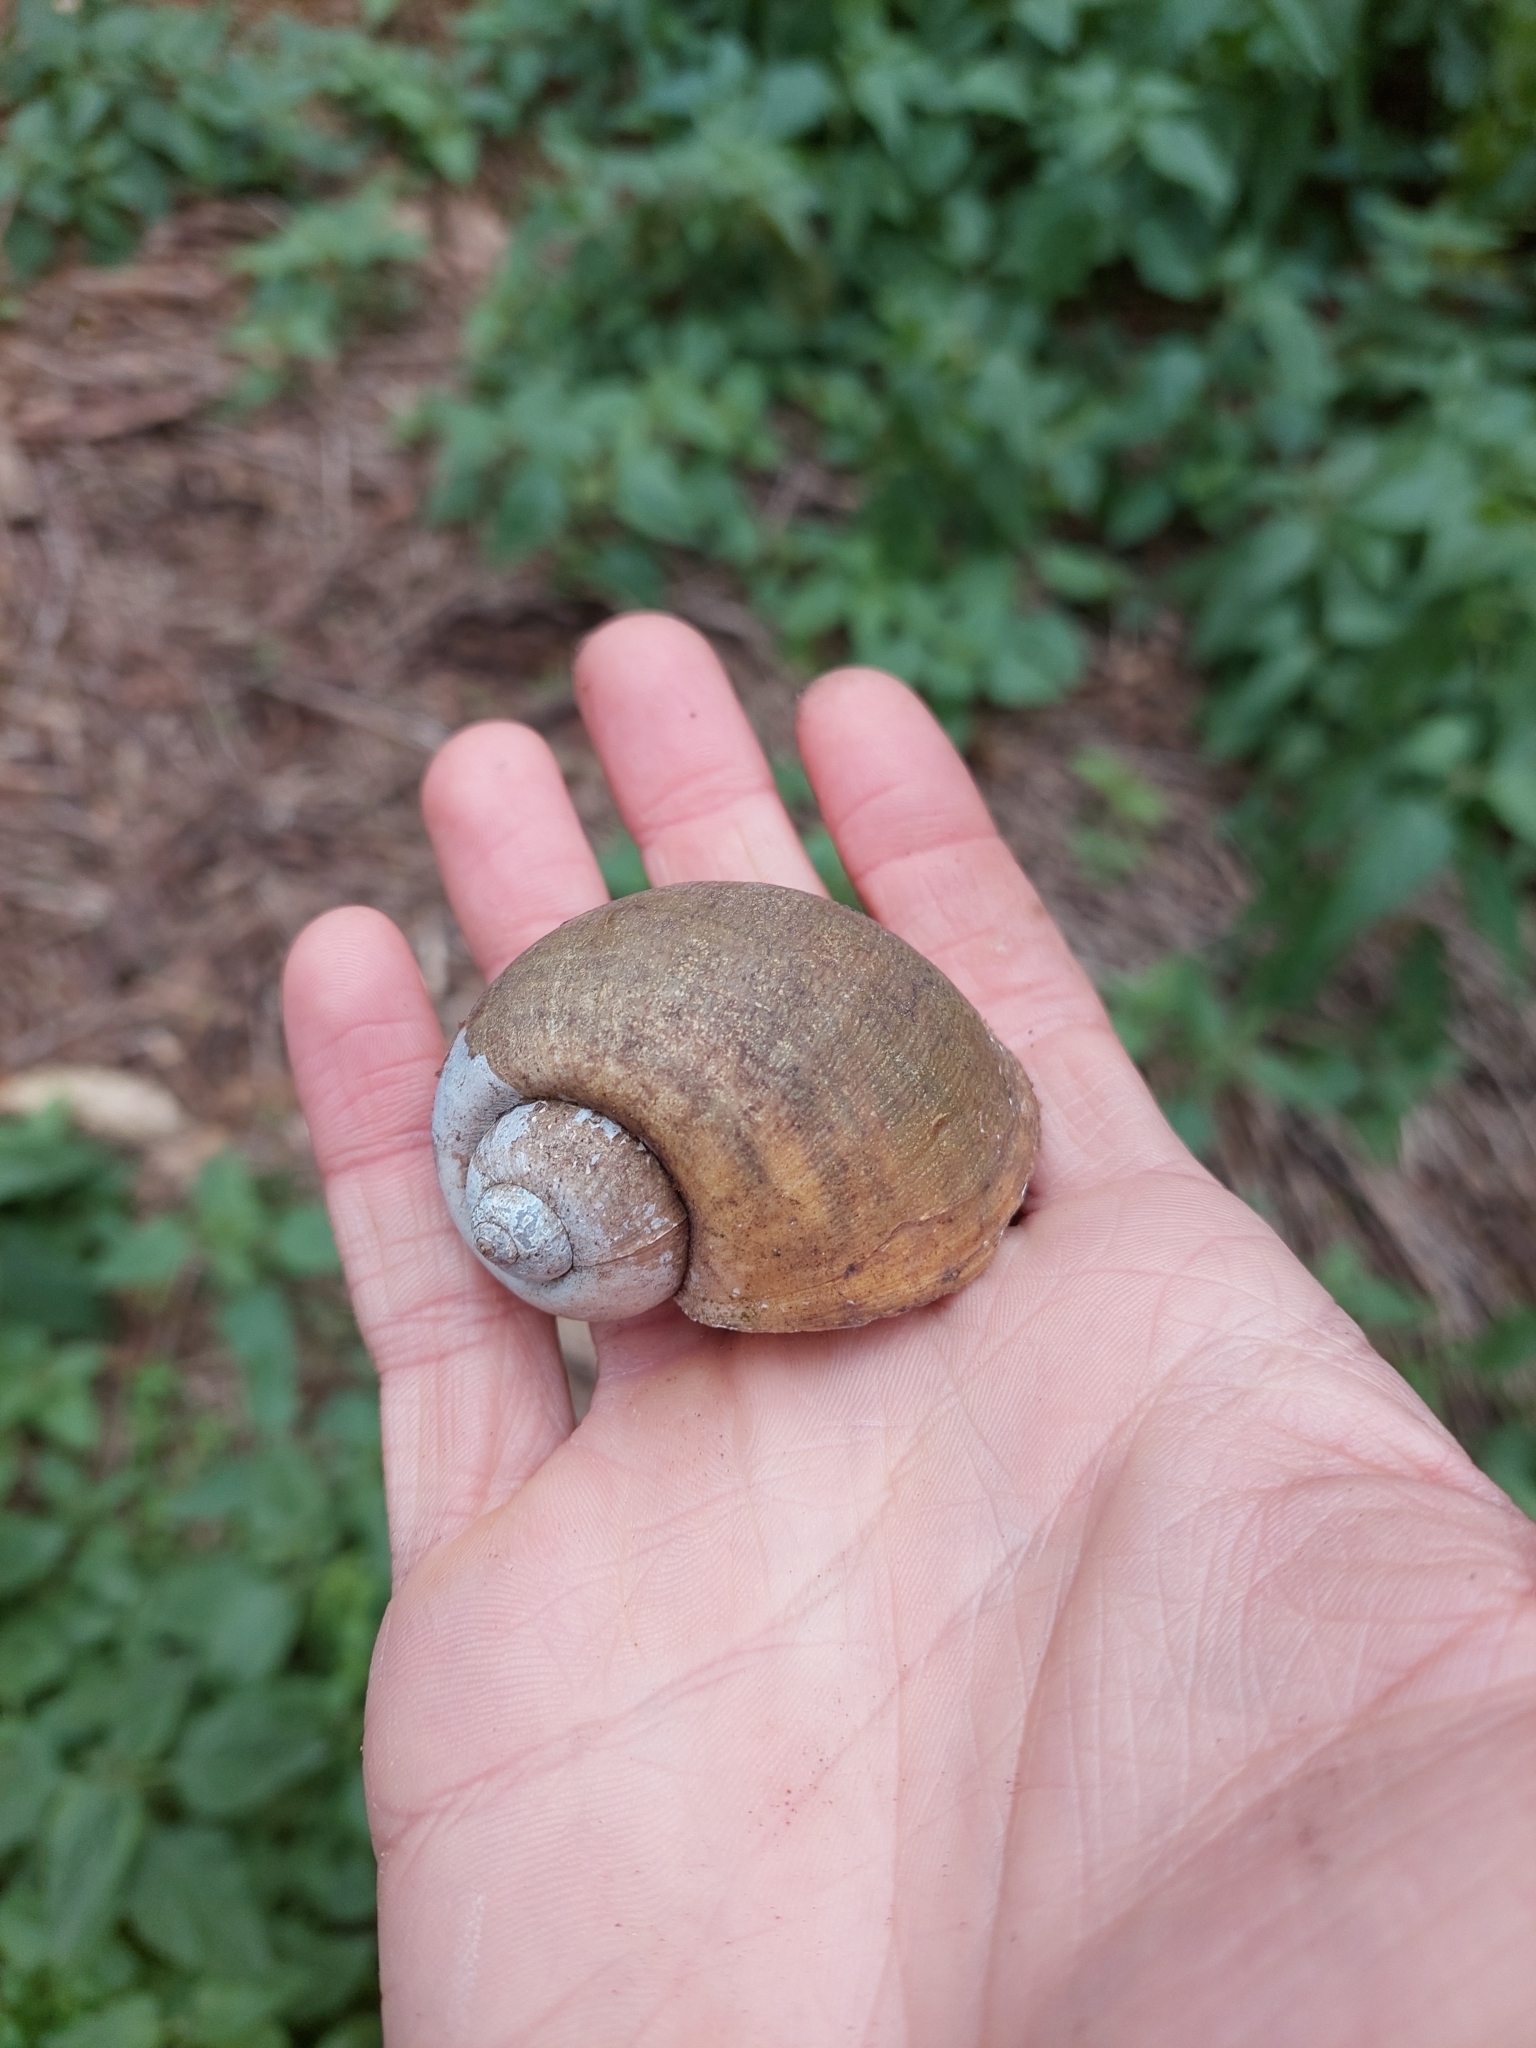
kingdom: Animalia
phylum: Mollusca
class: Gastropoda
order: Architaenioglossa
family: Ampullariidae
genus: Pomacea
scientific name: Pomacea maculata
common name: Giant applesnail
